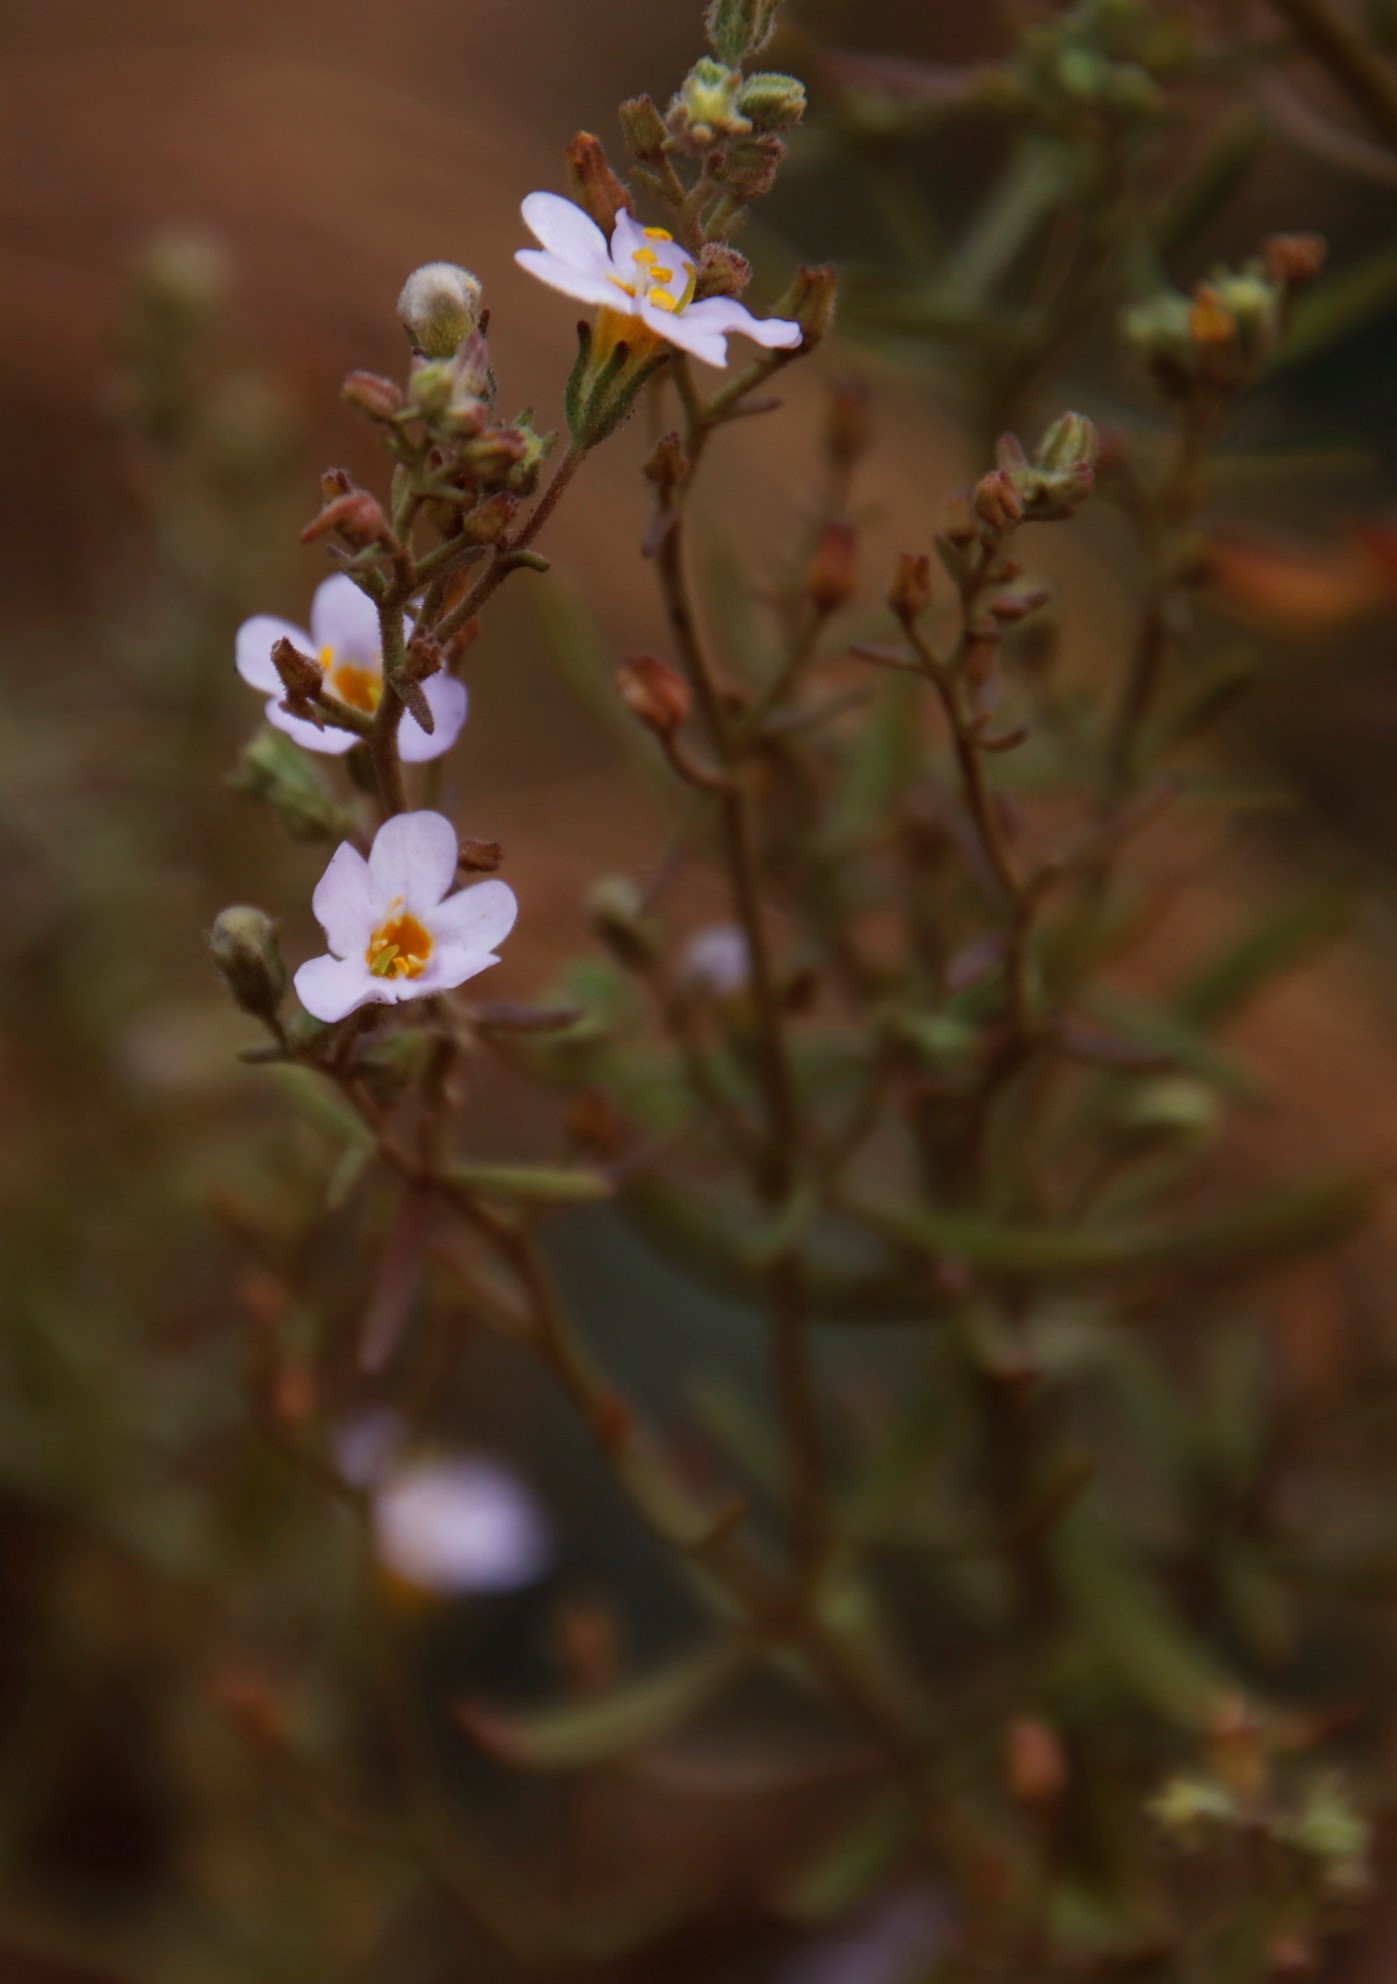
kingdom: Plantae
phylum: Tracheophyta
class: Magnoliopsida
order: Lamiales
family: Scrophulariaceae
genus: Chaenostoma
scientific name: Chaenostoma leve
